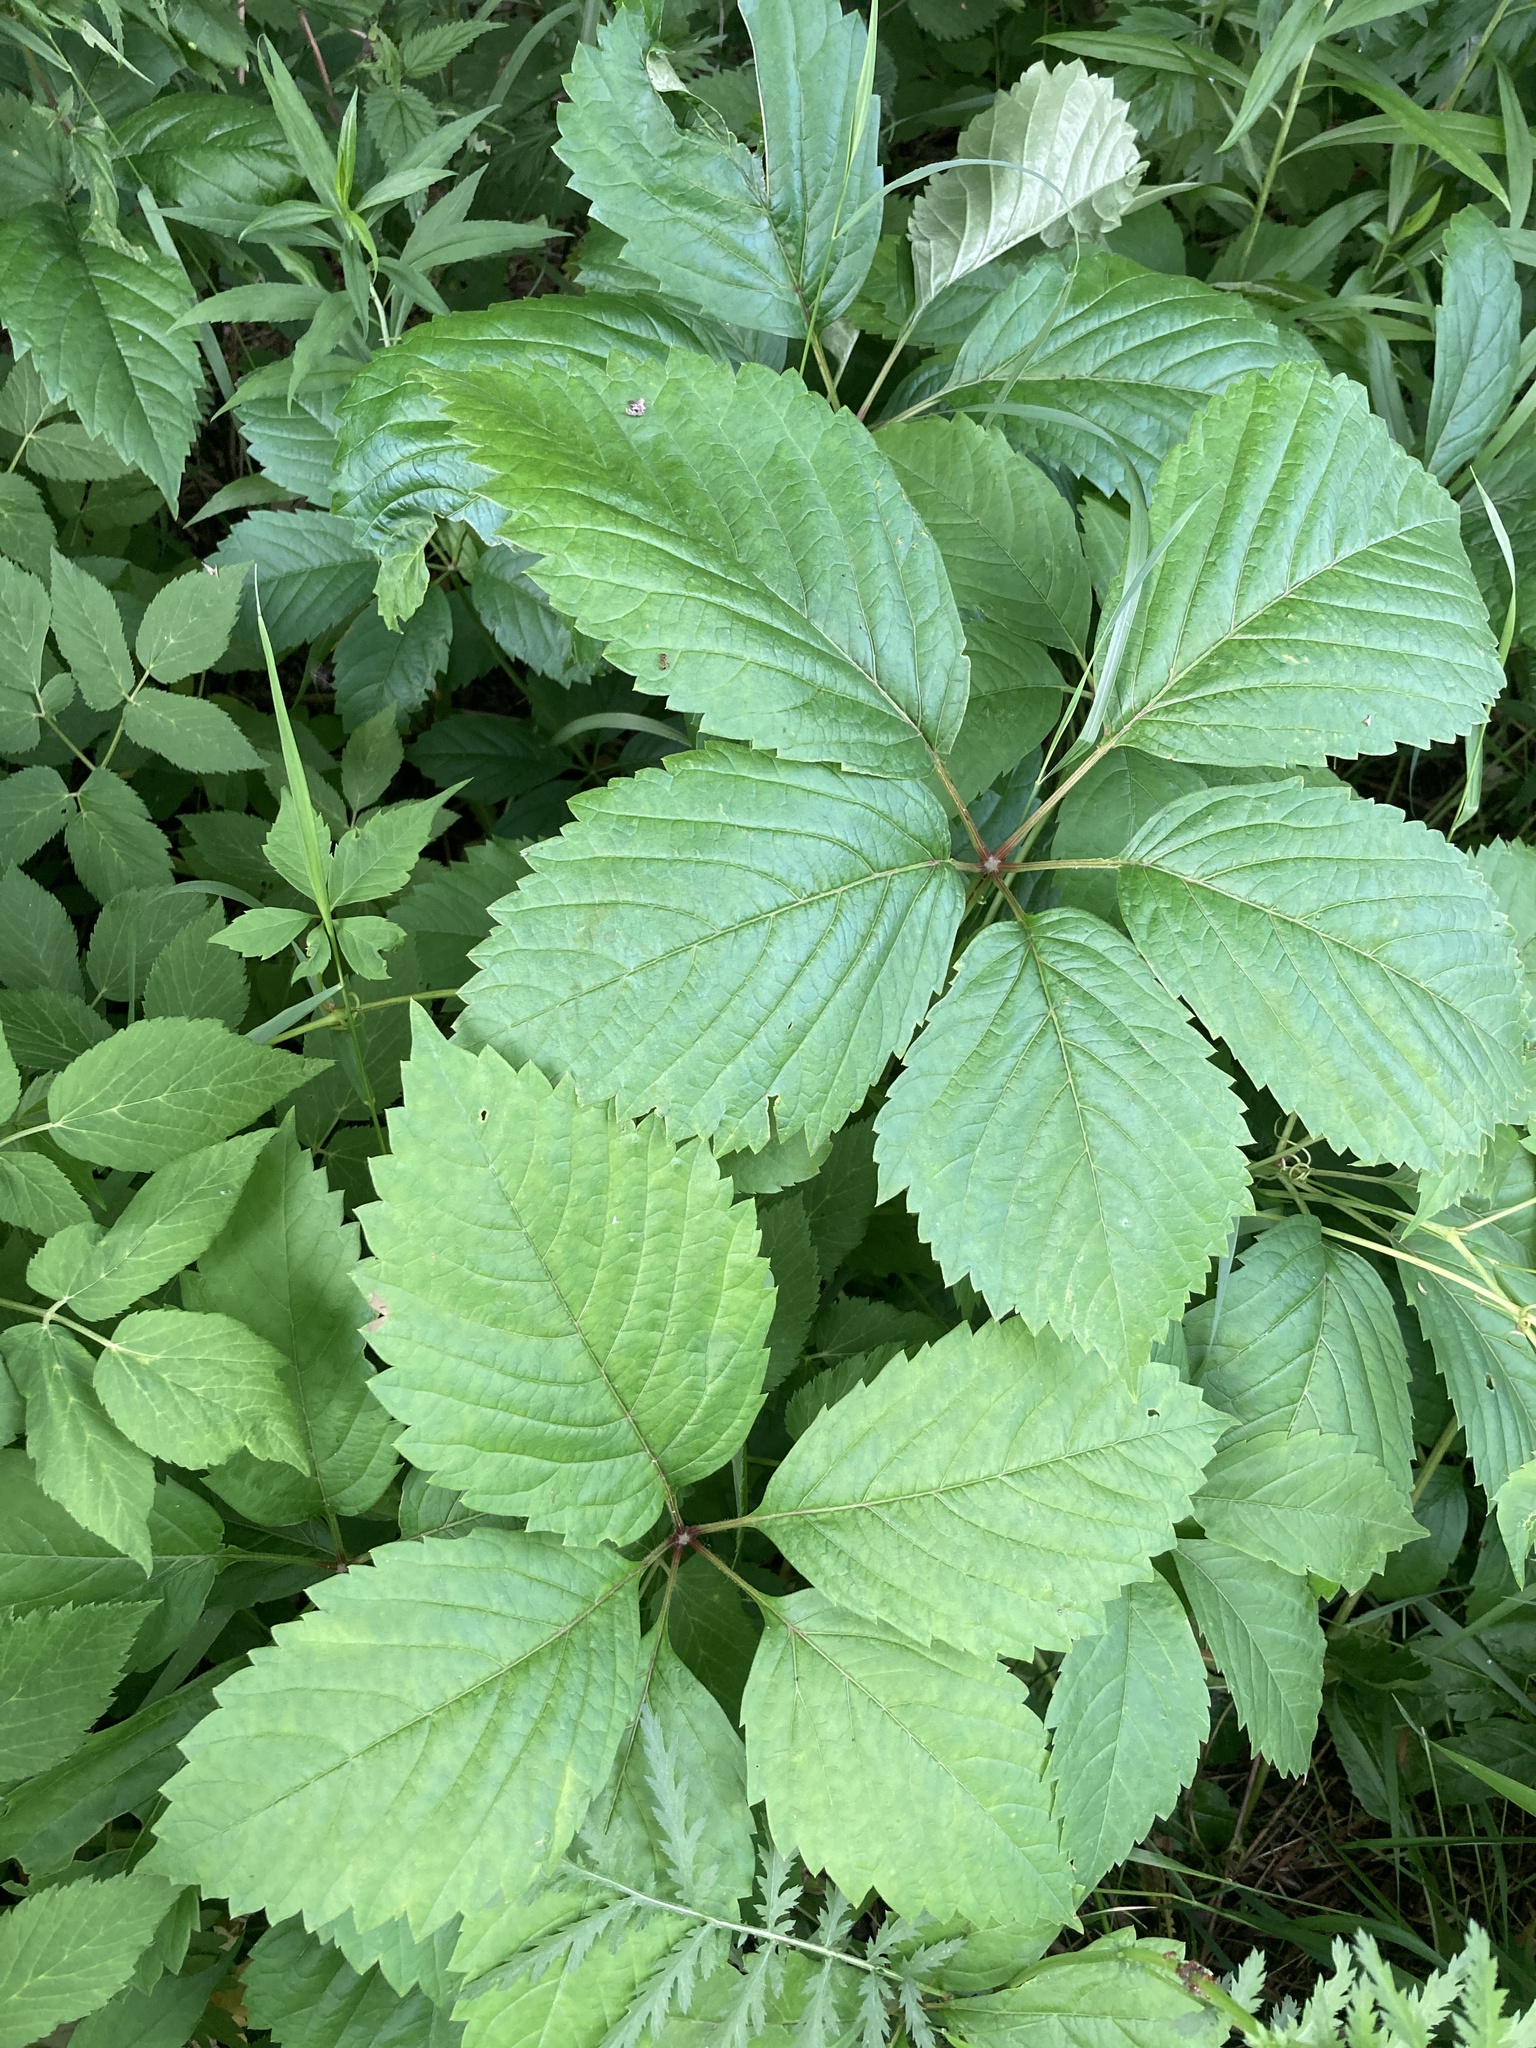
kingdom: Plantae
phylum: Tracheophyta
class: Magnoliopsida
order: Vitales
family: Vitaceae
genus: Parthenocissus
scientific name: Parthenocissus inserta
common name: False virginia-creeper
